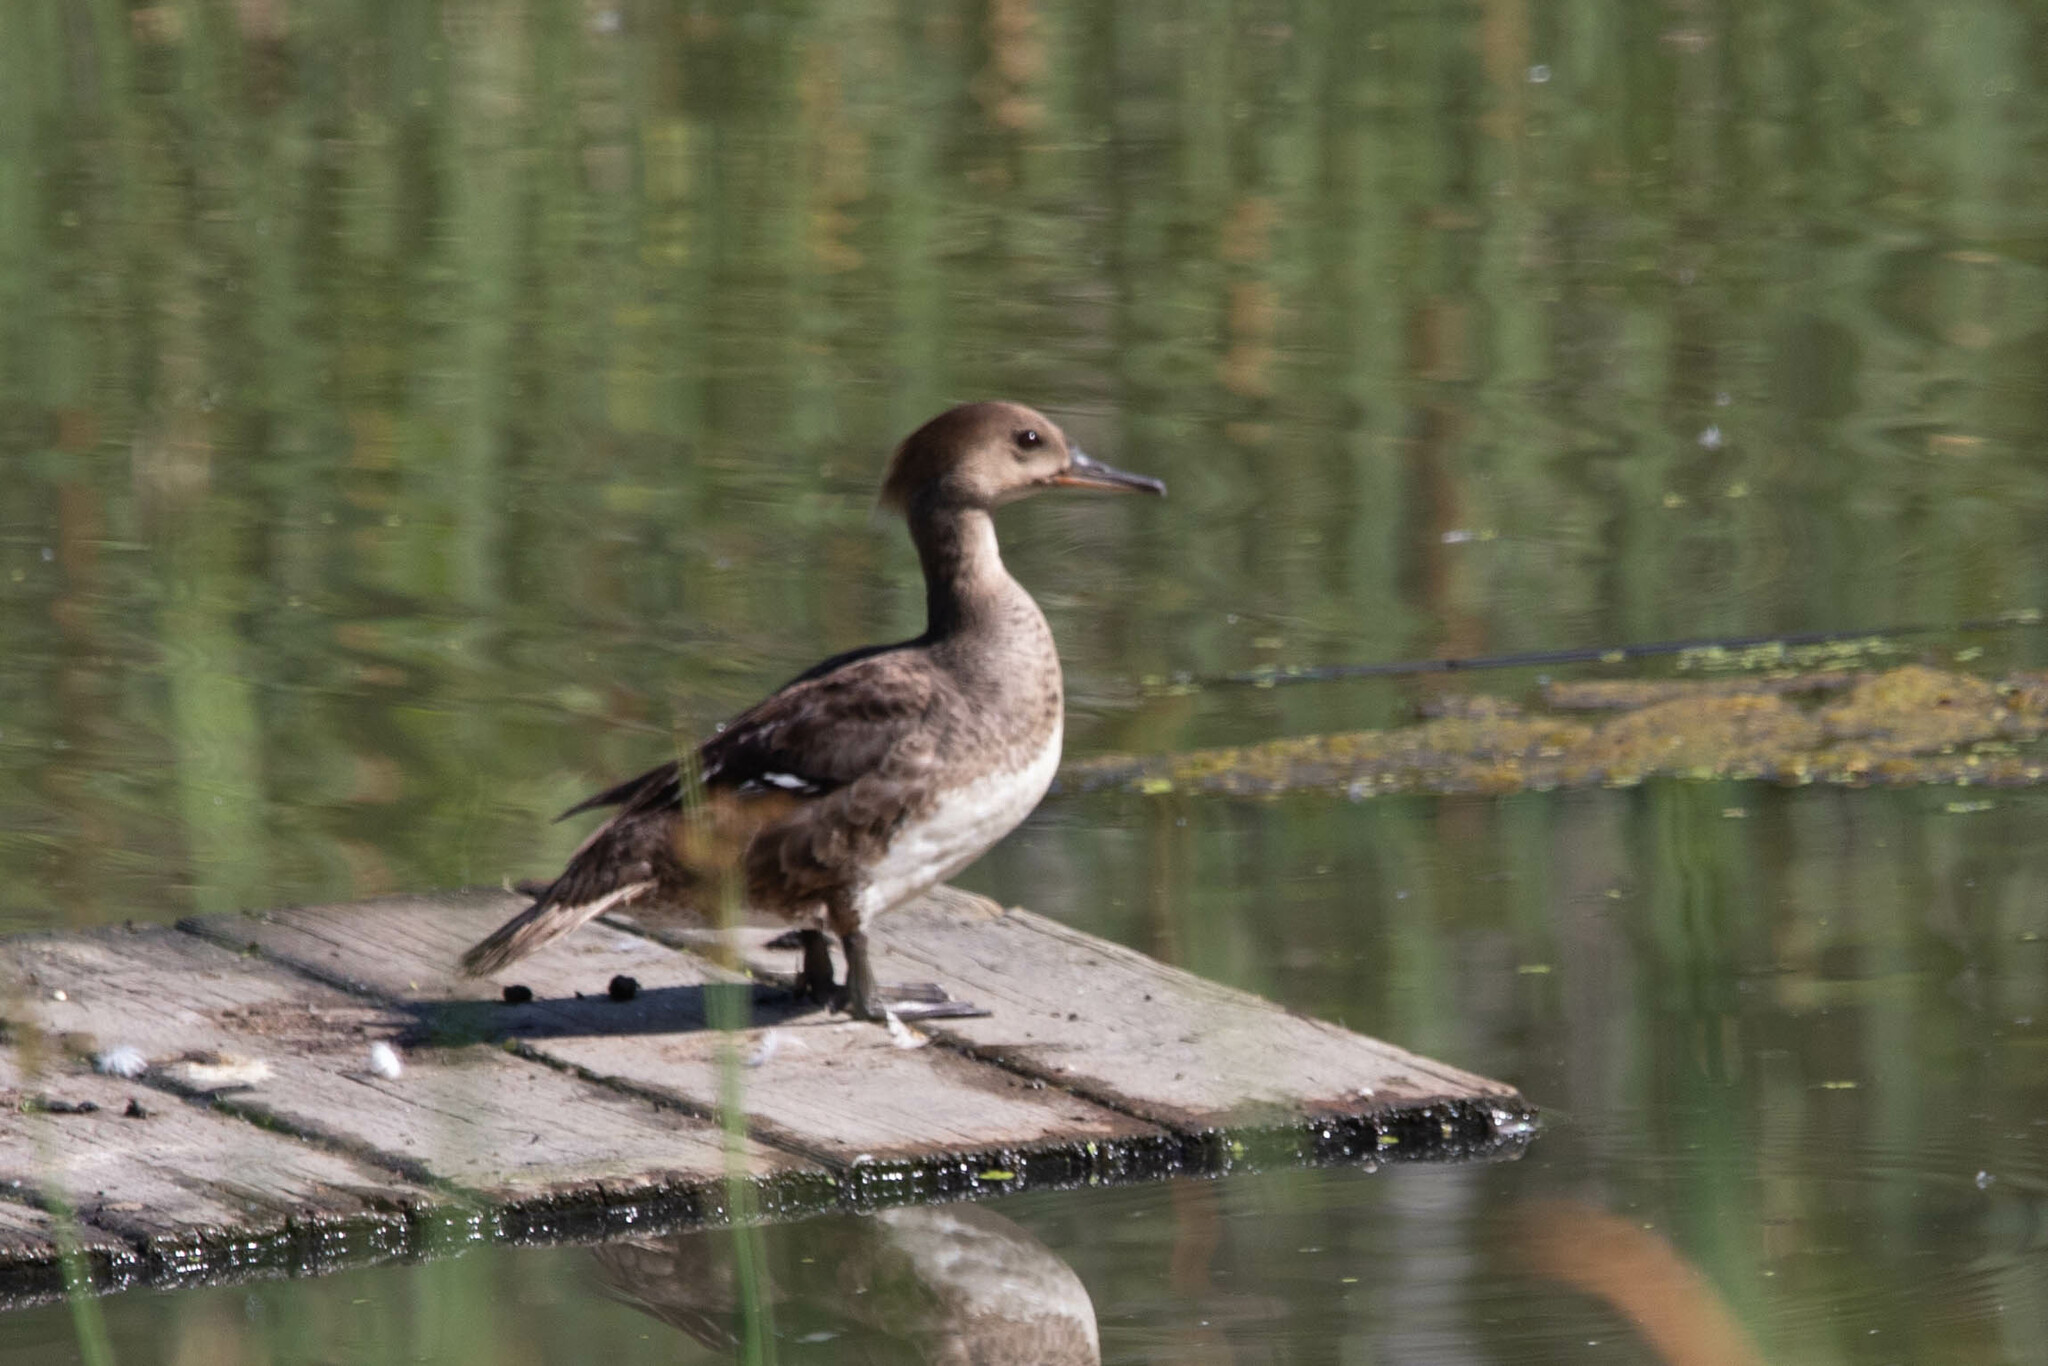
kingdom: Animalia
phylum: Chordata
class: Aves
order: Anseriformes
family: Anatidae
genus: Lophodytes
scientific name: Lophodytes cucullatus
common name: Hooded merganser
